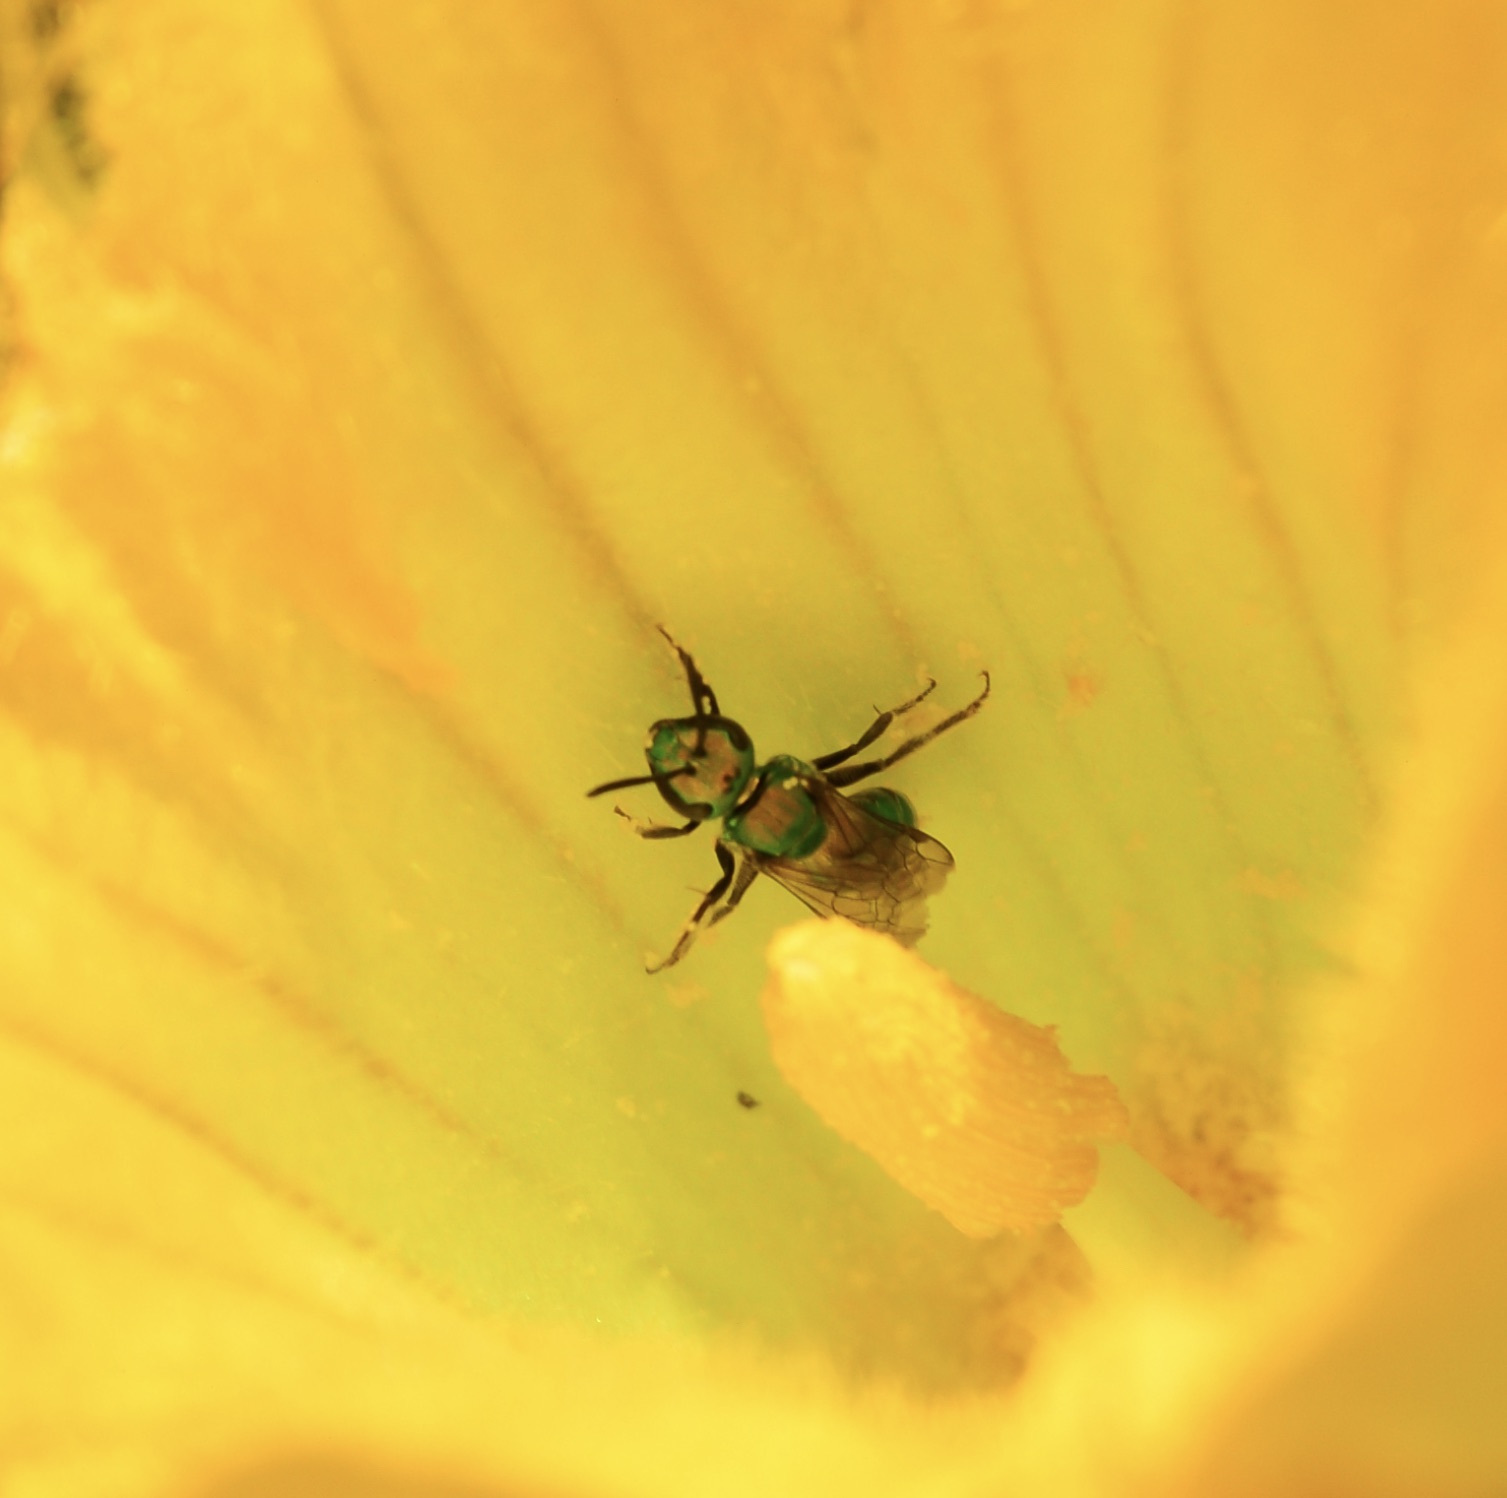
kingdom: Animalia
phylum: Arthropoda
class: Insecta
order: Hymenoptera
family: Halictidae
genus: Augochlora
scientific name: Augochlora pura
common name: Pure green sweat bee
